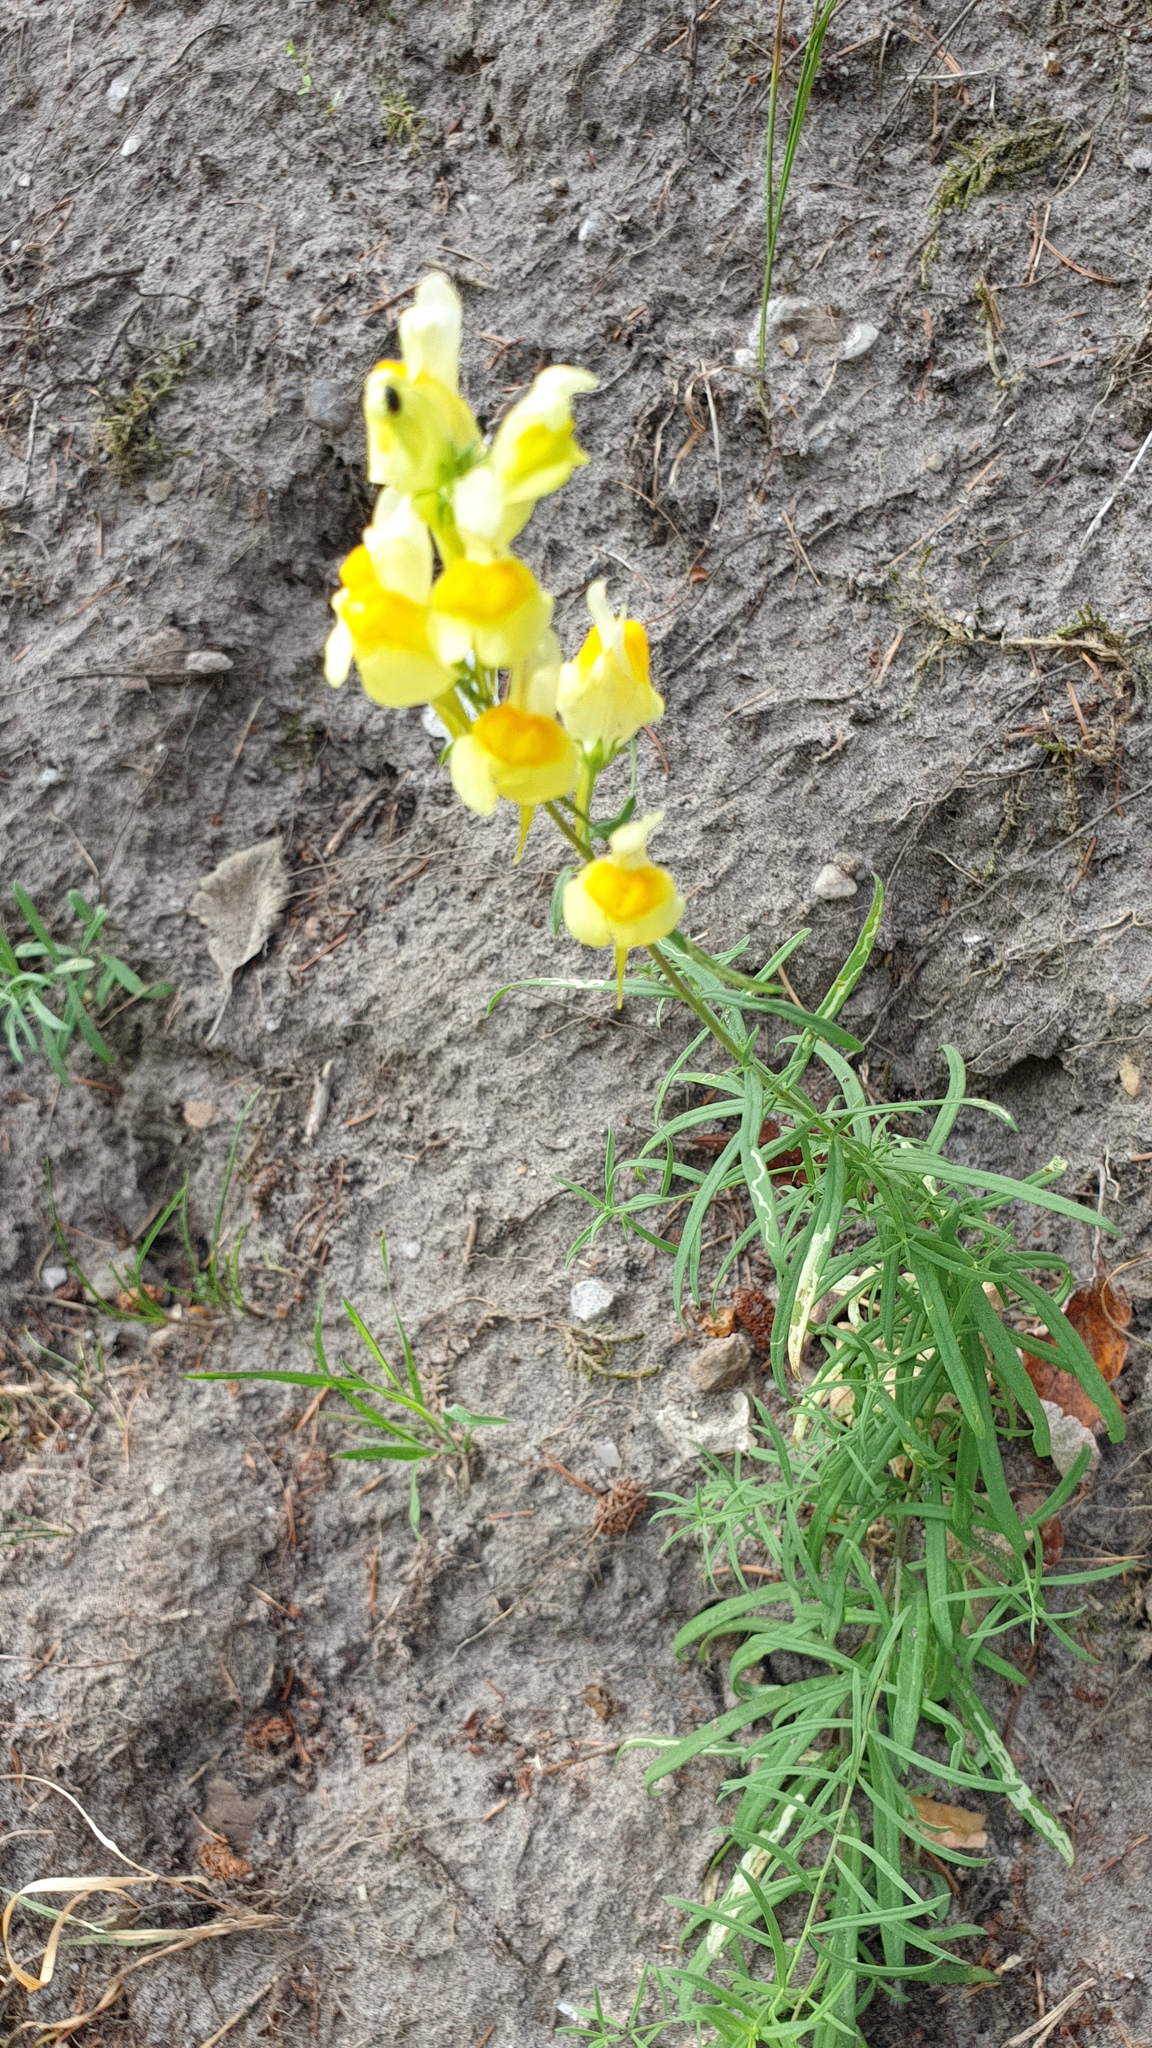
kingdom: Plantae
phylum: Tracheophyta
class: Magnoliopsida
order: Lamiales
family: Plantaginaceae
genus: Linaria
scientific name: Linaria vulgaris
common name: Butter and eggs
